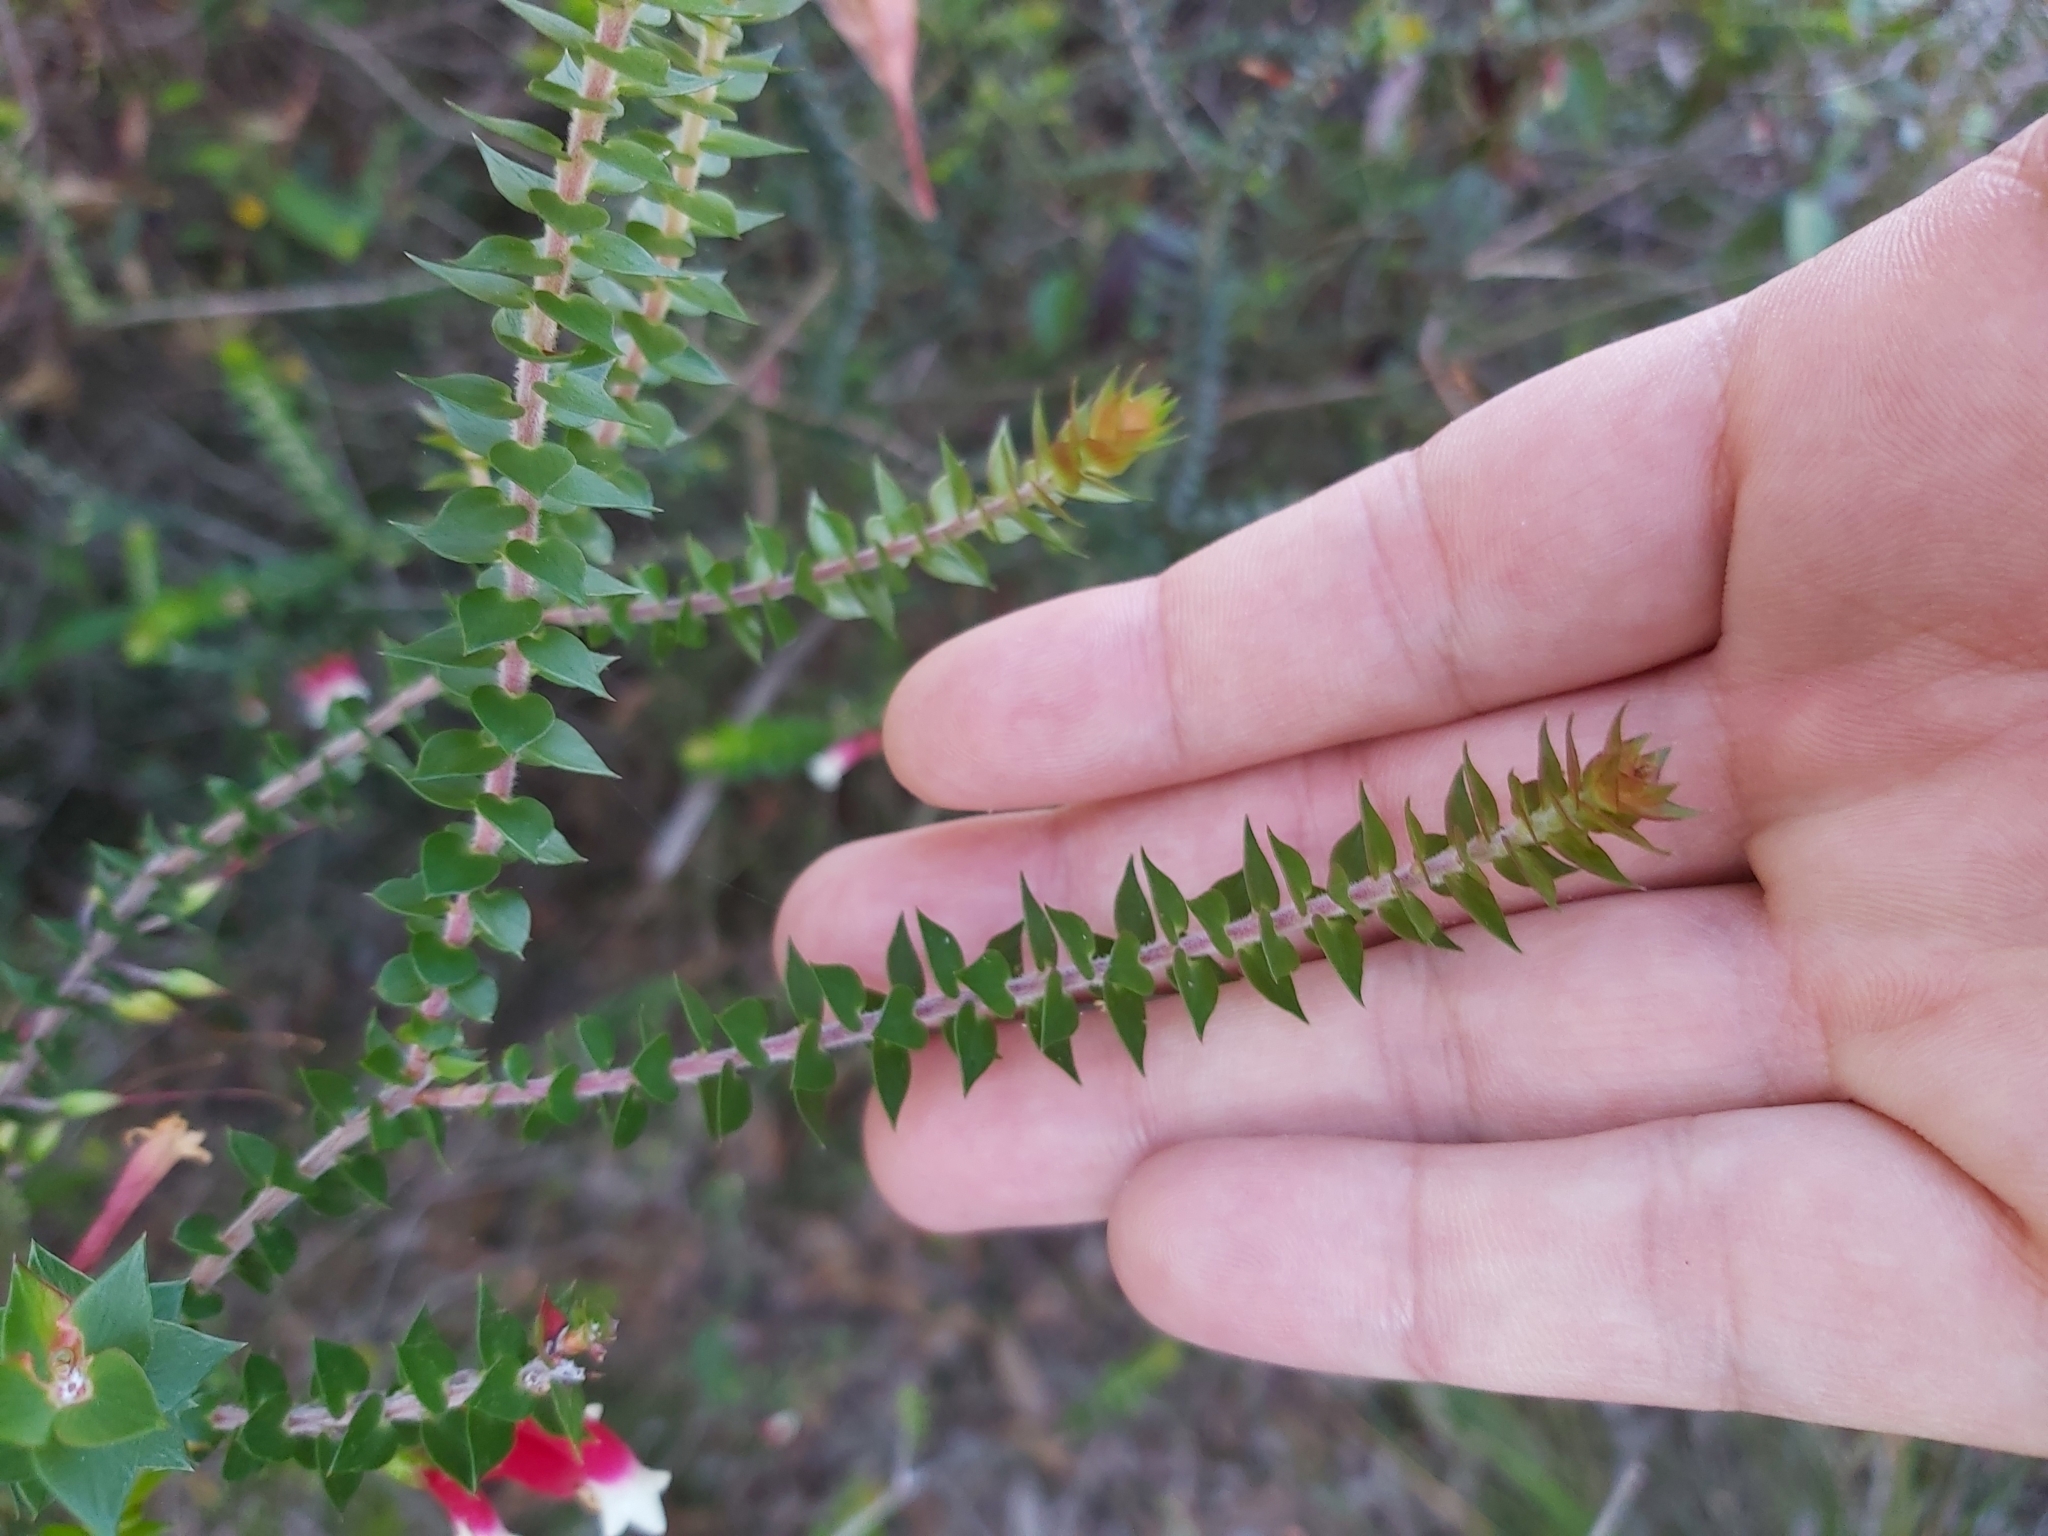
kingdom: Plantae
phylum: Tracheophyta
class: Magnoliopsida
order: Ericales
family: Ericaceae
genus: Epacris
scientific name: Epacris longiflora
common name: Fuchsia-heath
